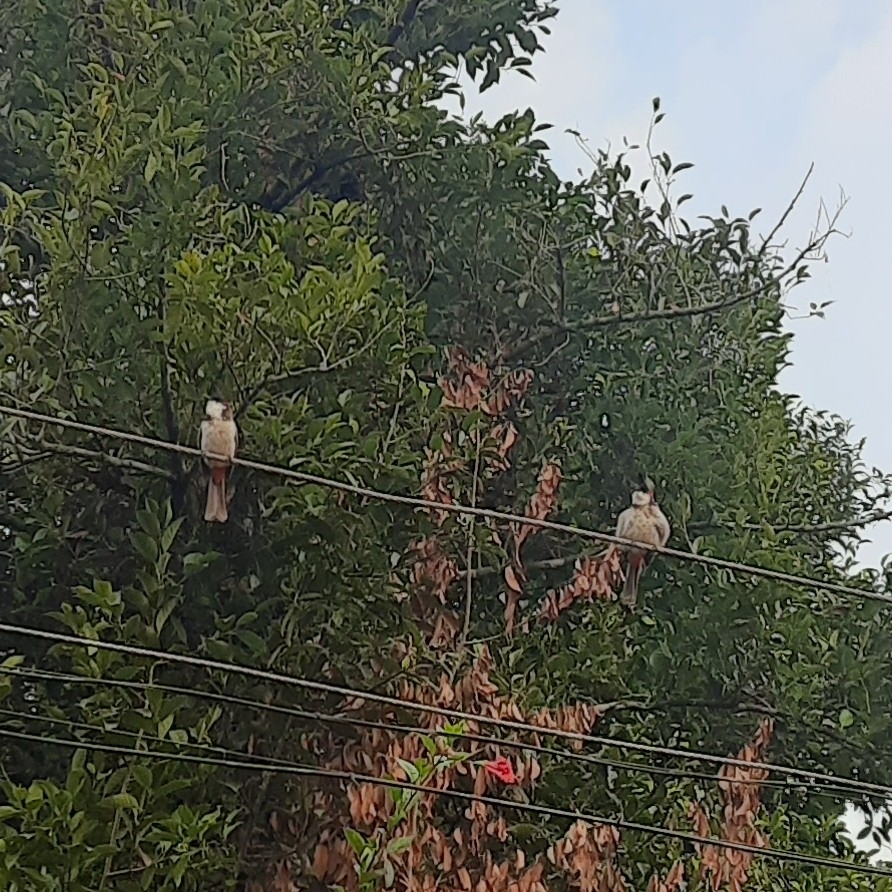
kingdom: Animalia
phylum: Chordata
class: Aves
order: Passeriformes
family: Pycnonotidae
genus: Pycnonotus
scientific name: Pycnonotus jocosus
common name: Red-whiskered bulbul
